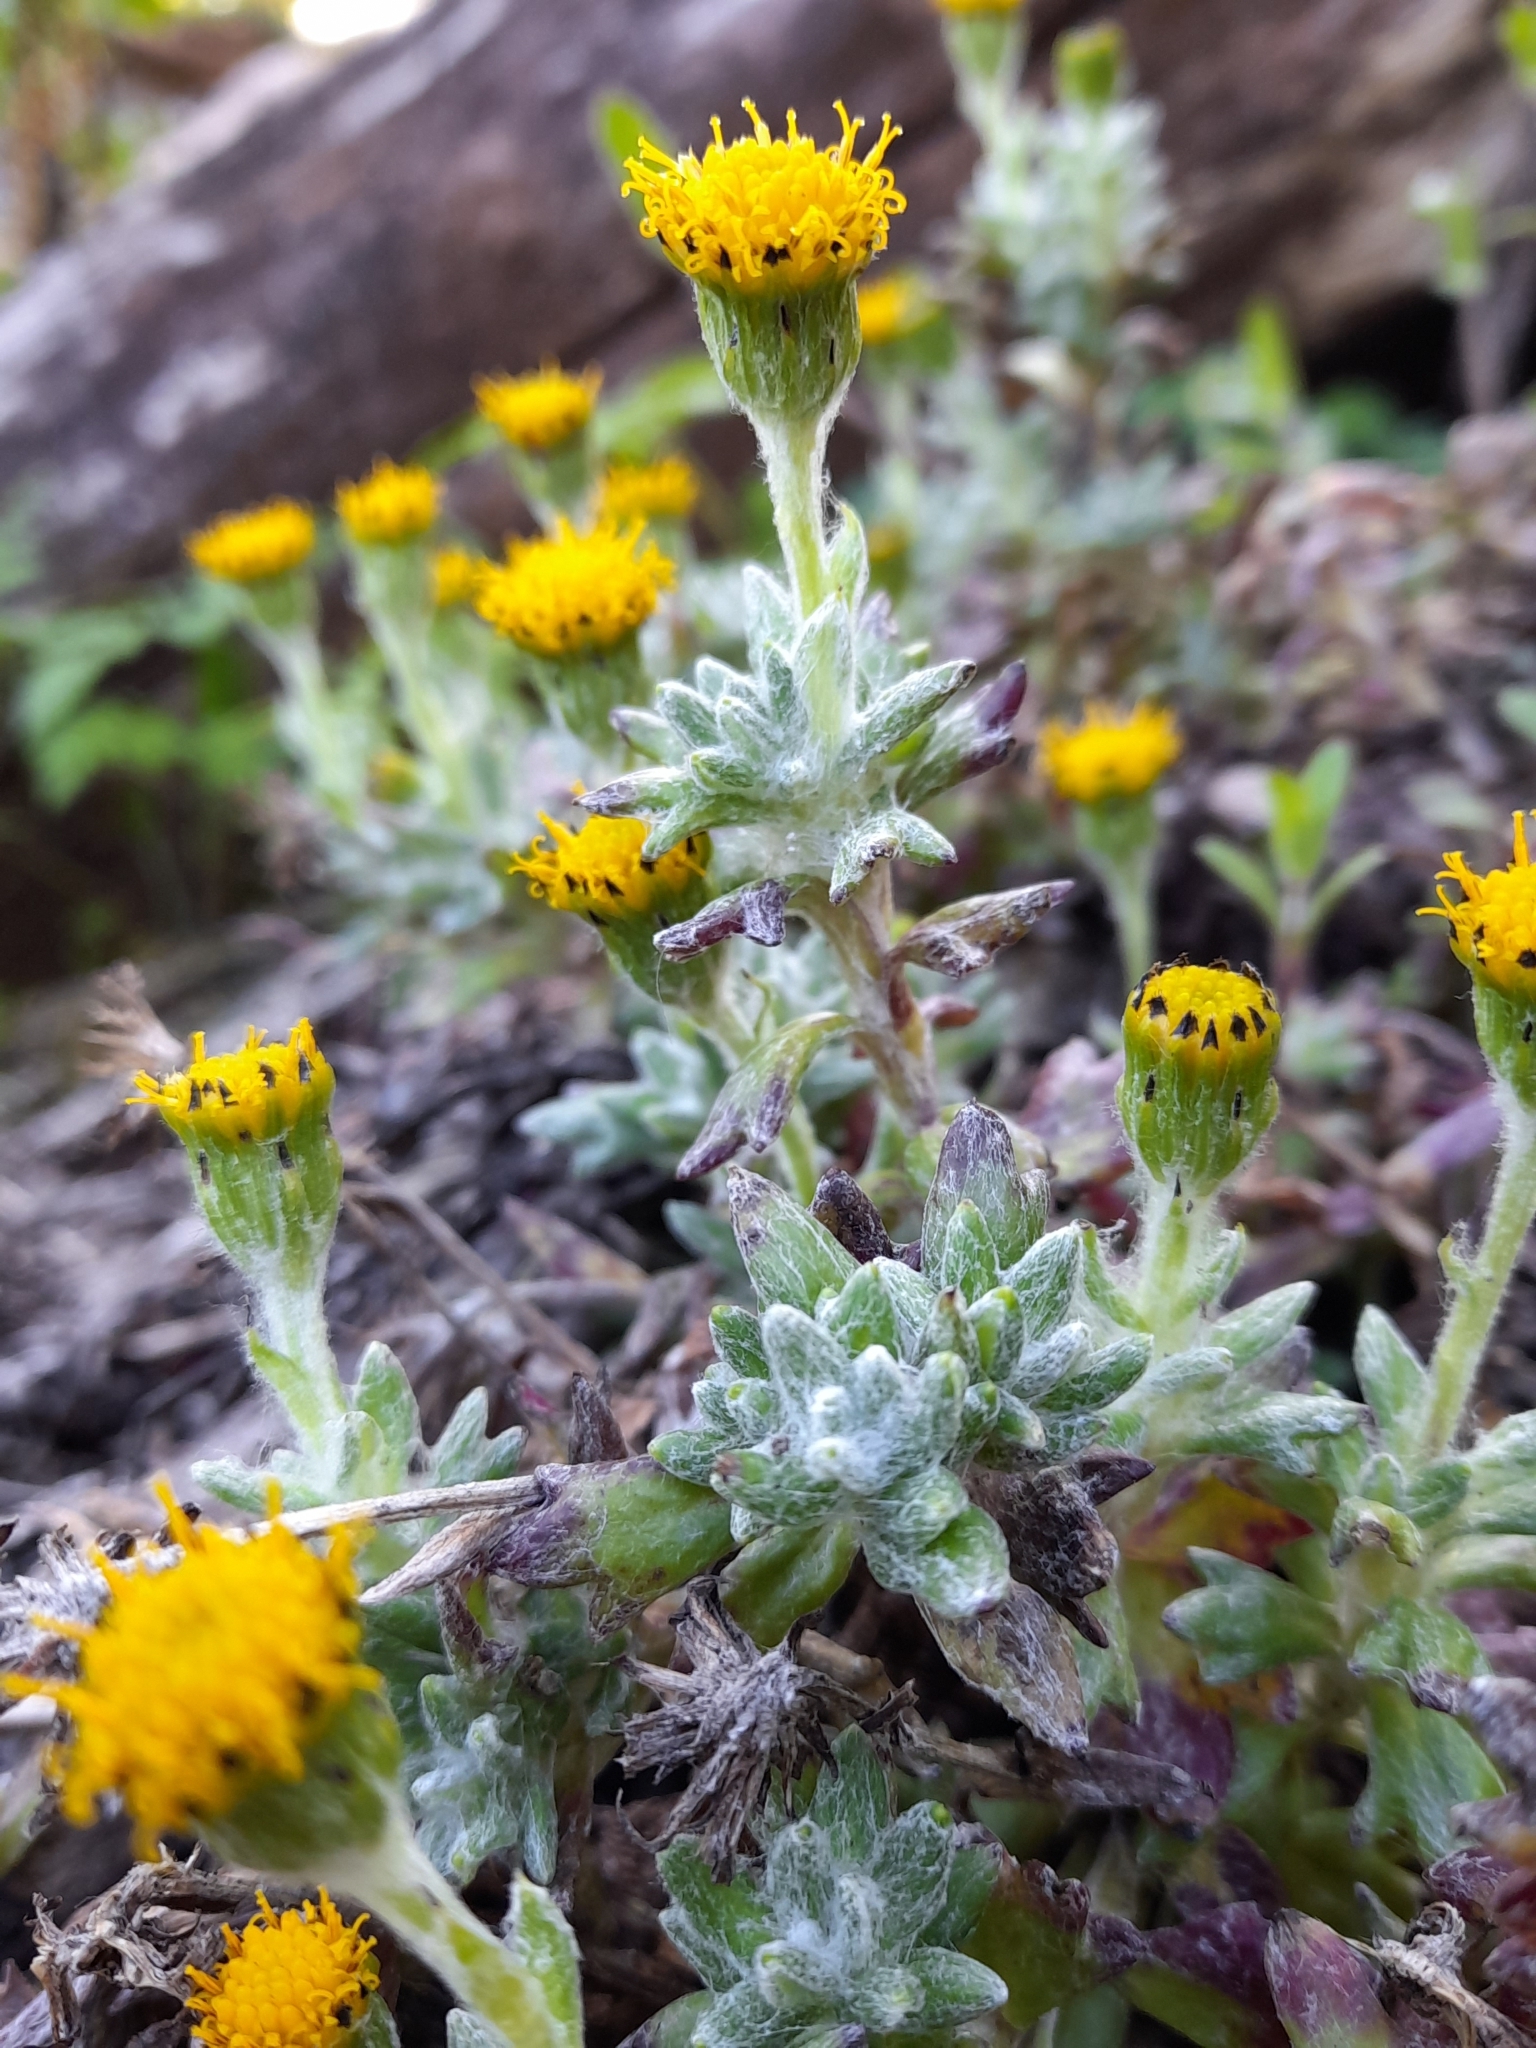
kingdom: Plantae
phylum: Tracheophyta
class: Magnoliopsida
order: Asterales
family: Asteraceae
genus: Senecio
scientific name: Senecio alloeophyllus
